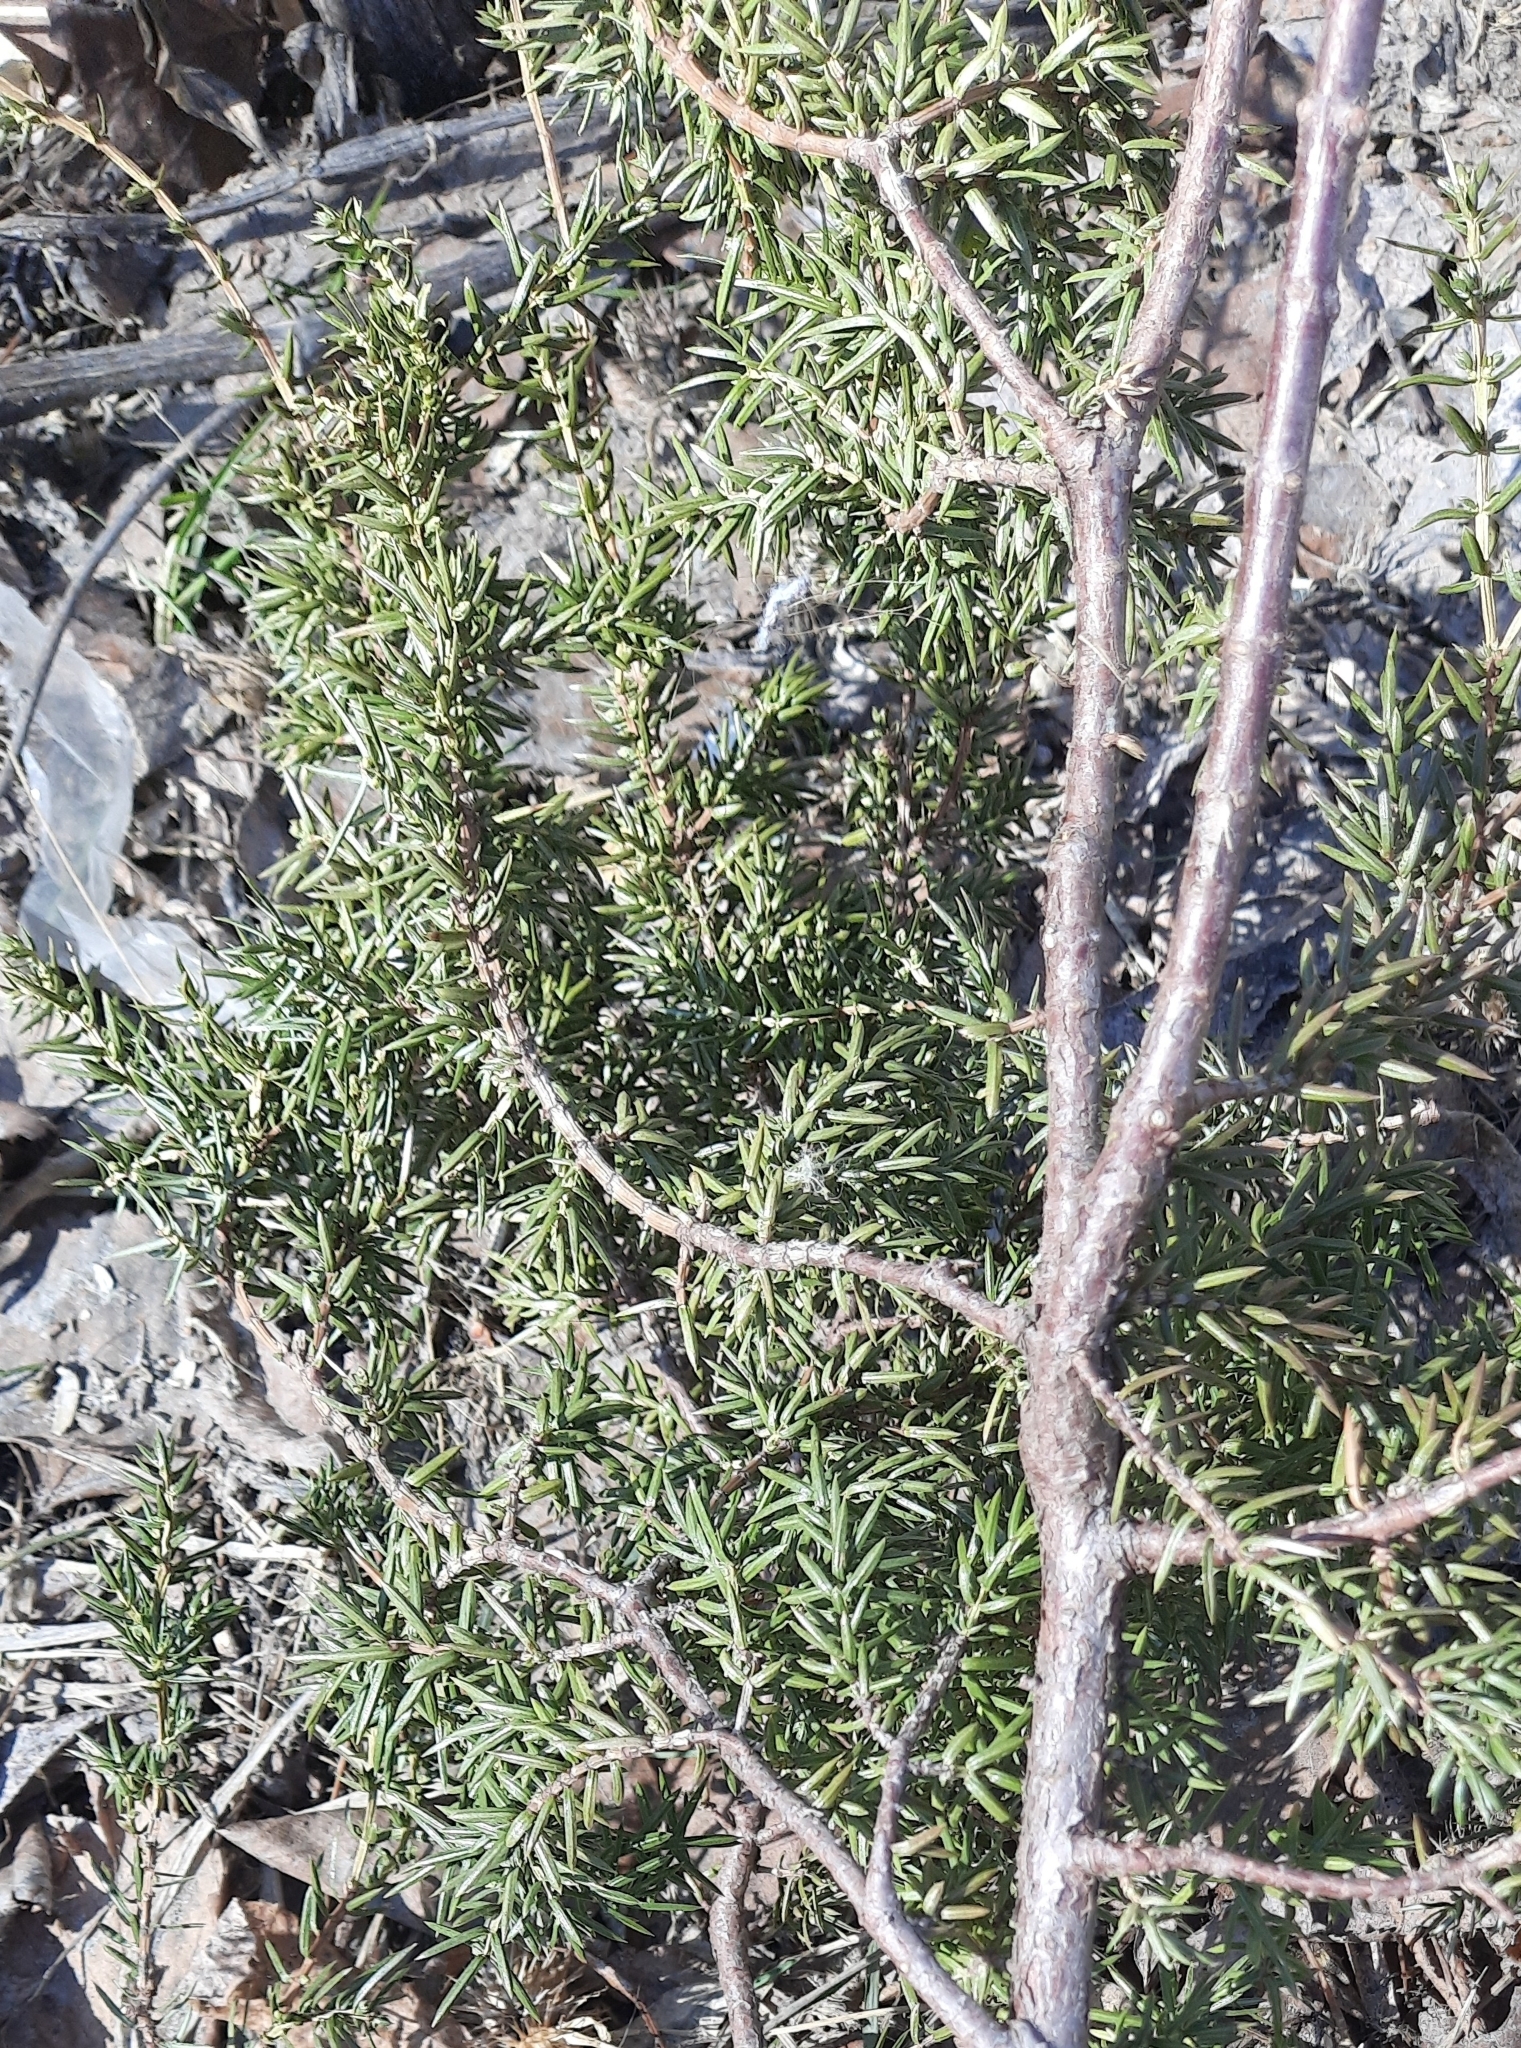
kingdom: Plantae
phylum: Tracheophyta
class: Pinopsida
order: Pinales
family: Cupressaceae
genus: Juniperus
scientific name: Juniperus communis
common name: Common juniper
